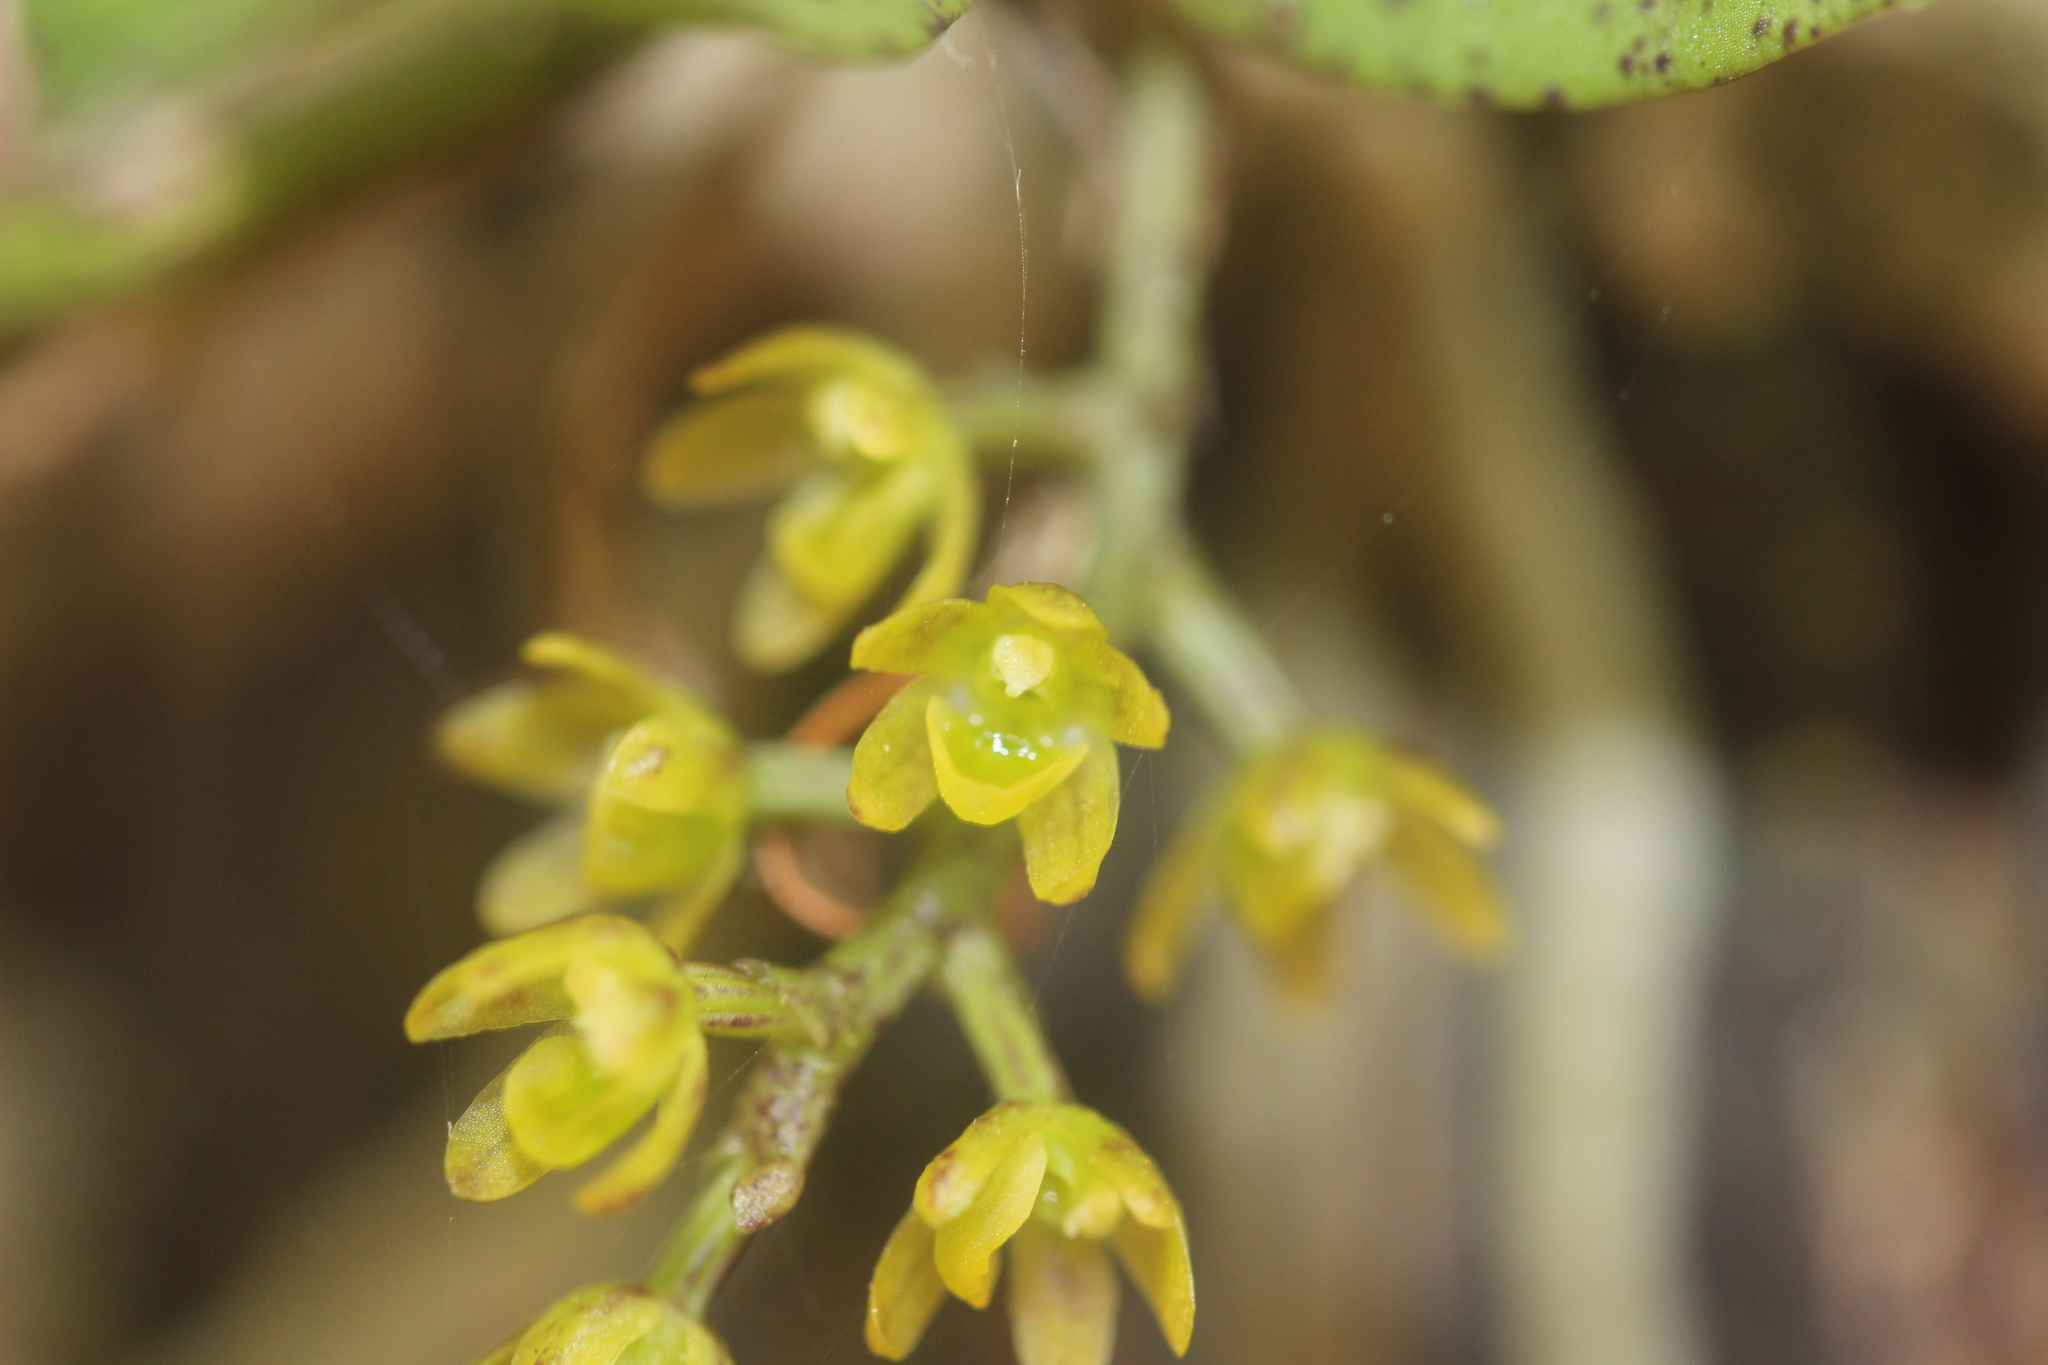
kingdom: Plantae
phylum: Tracheophyta
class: Liliopsida
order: Asparagales
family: Orchidaceae
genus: Drymoanthus
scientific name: Drymoanthus flavus
